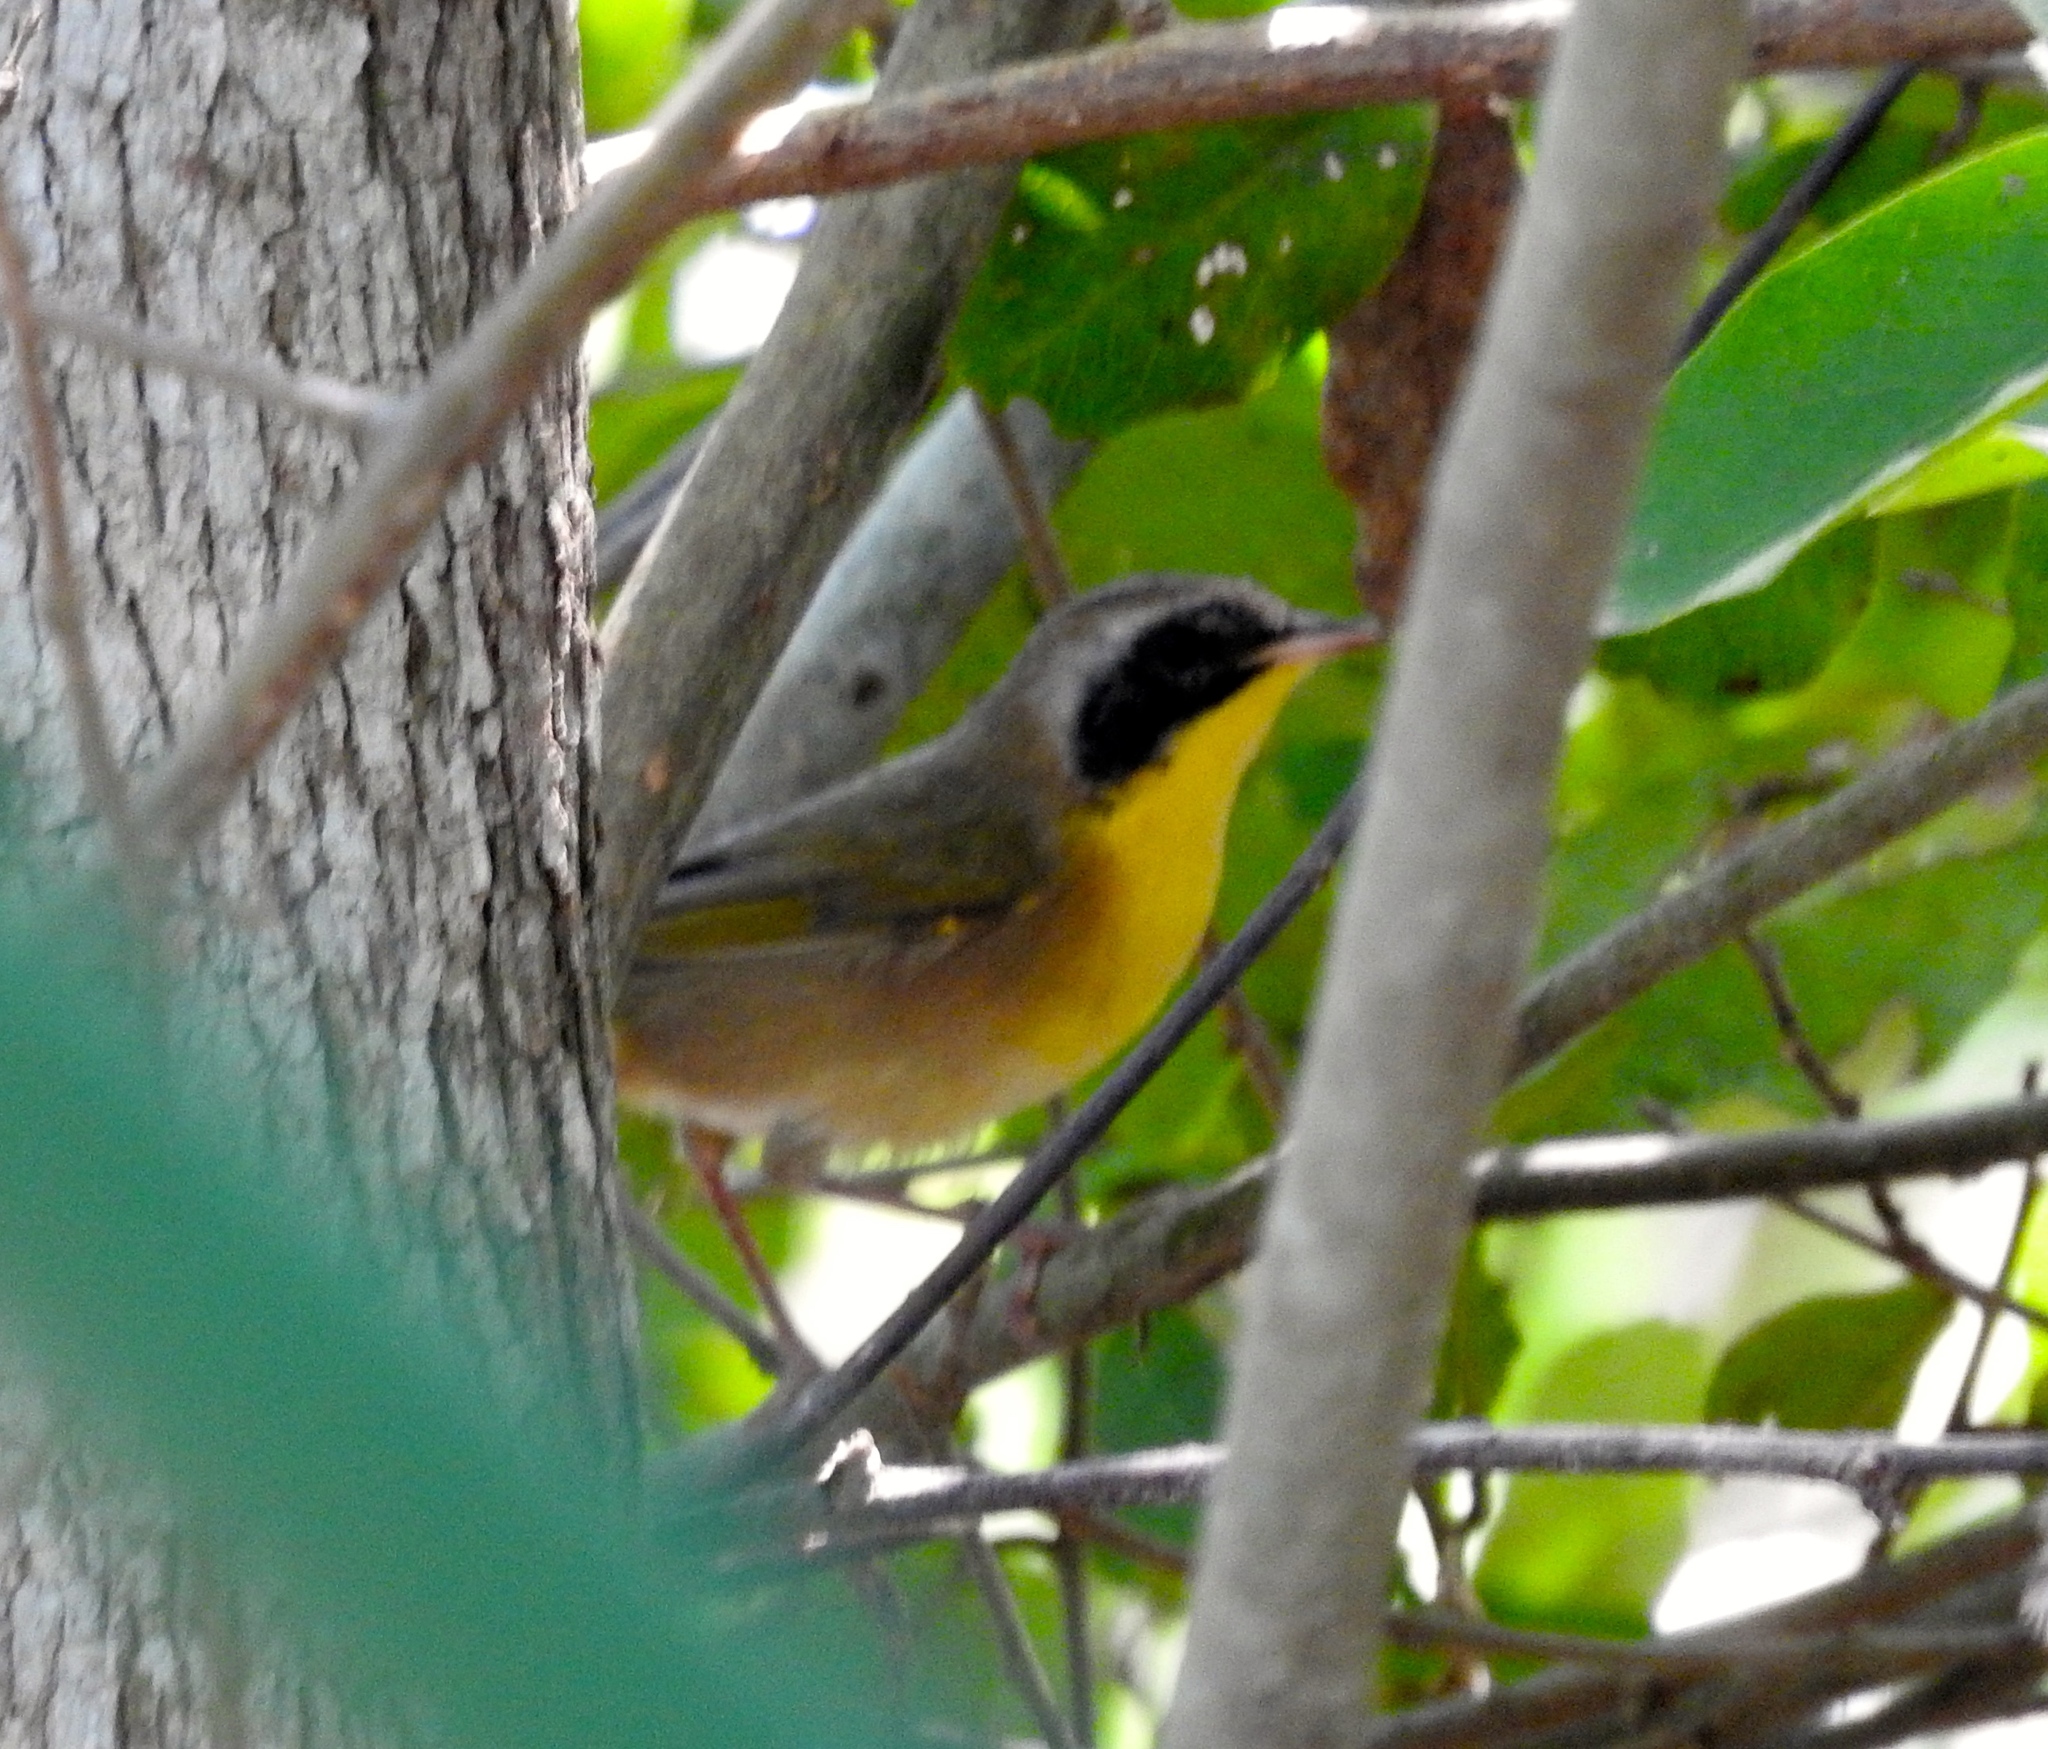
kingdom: Animalia
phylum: Chordata
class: Aves
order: Passeriformes
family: Parulidae
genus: Geothlypis
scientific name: Geothlypis trichas
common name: Common yellowthroat
